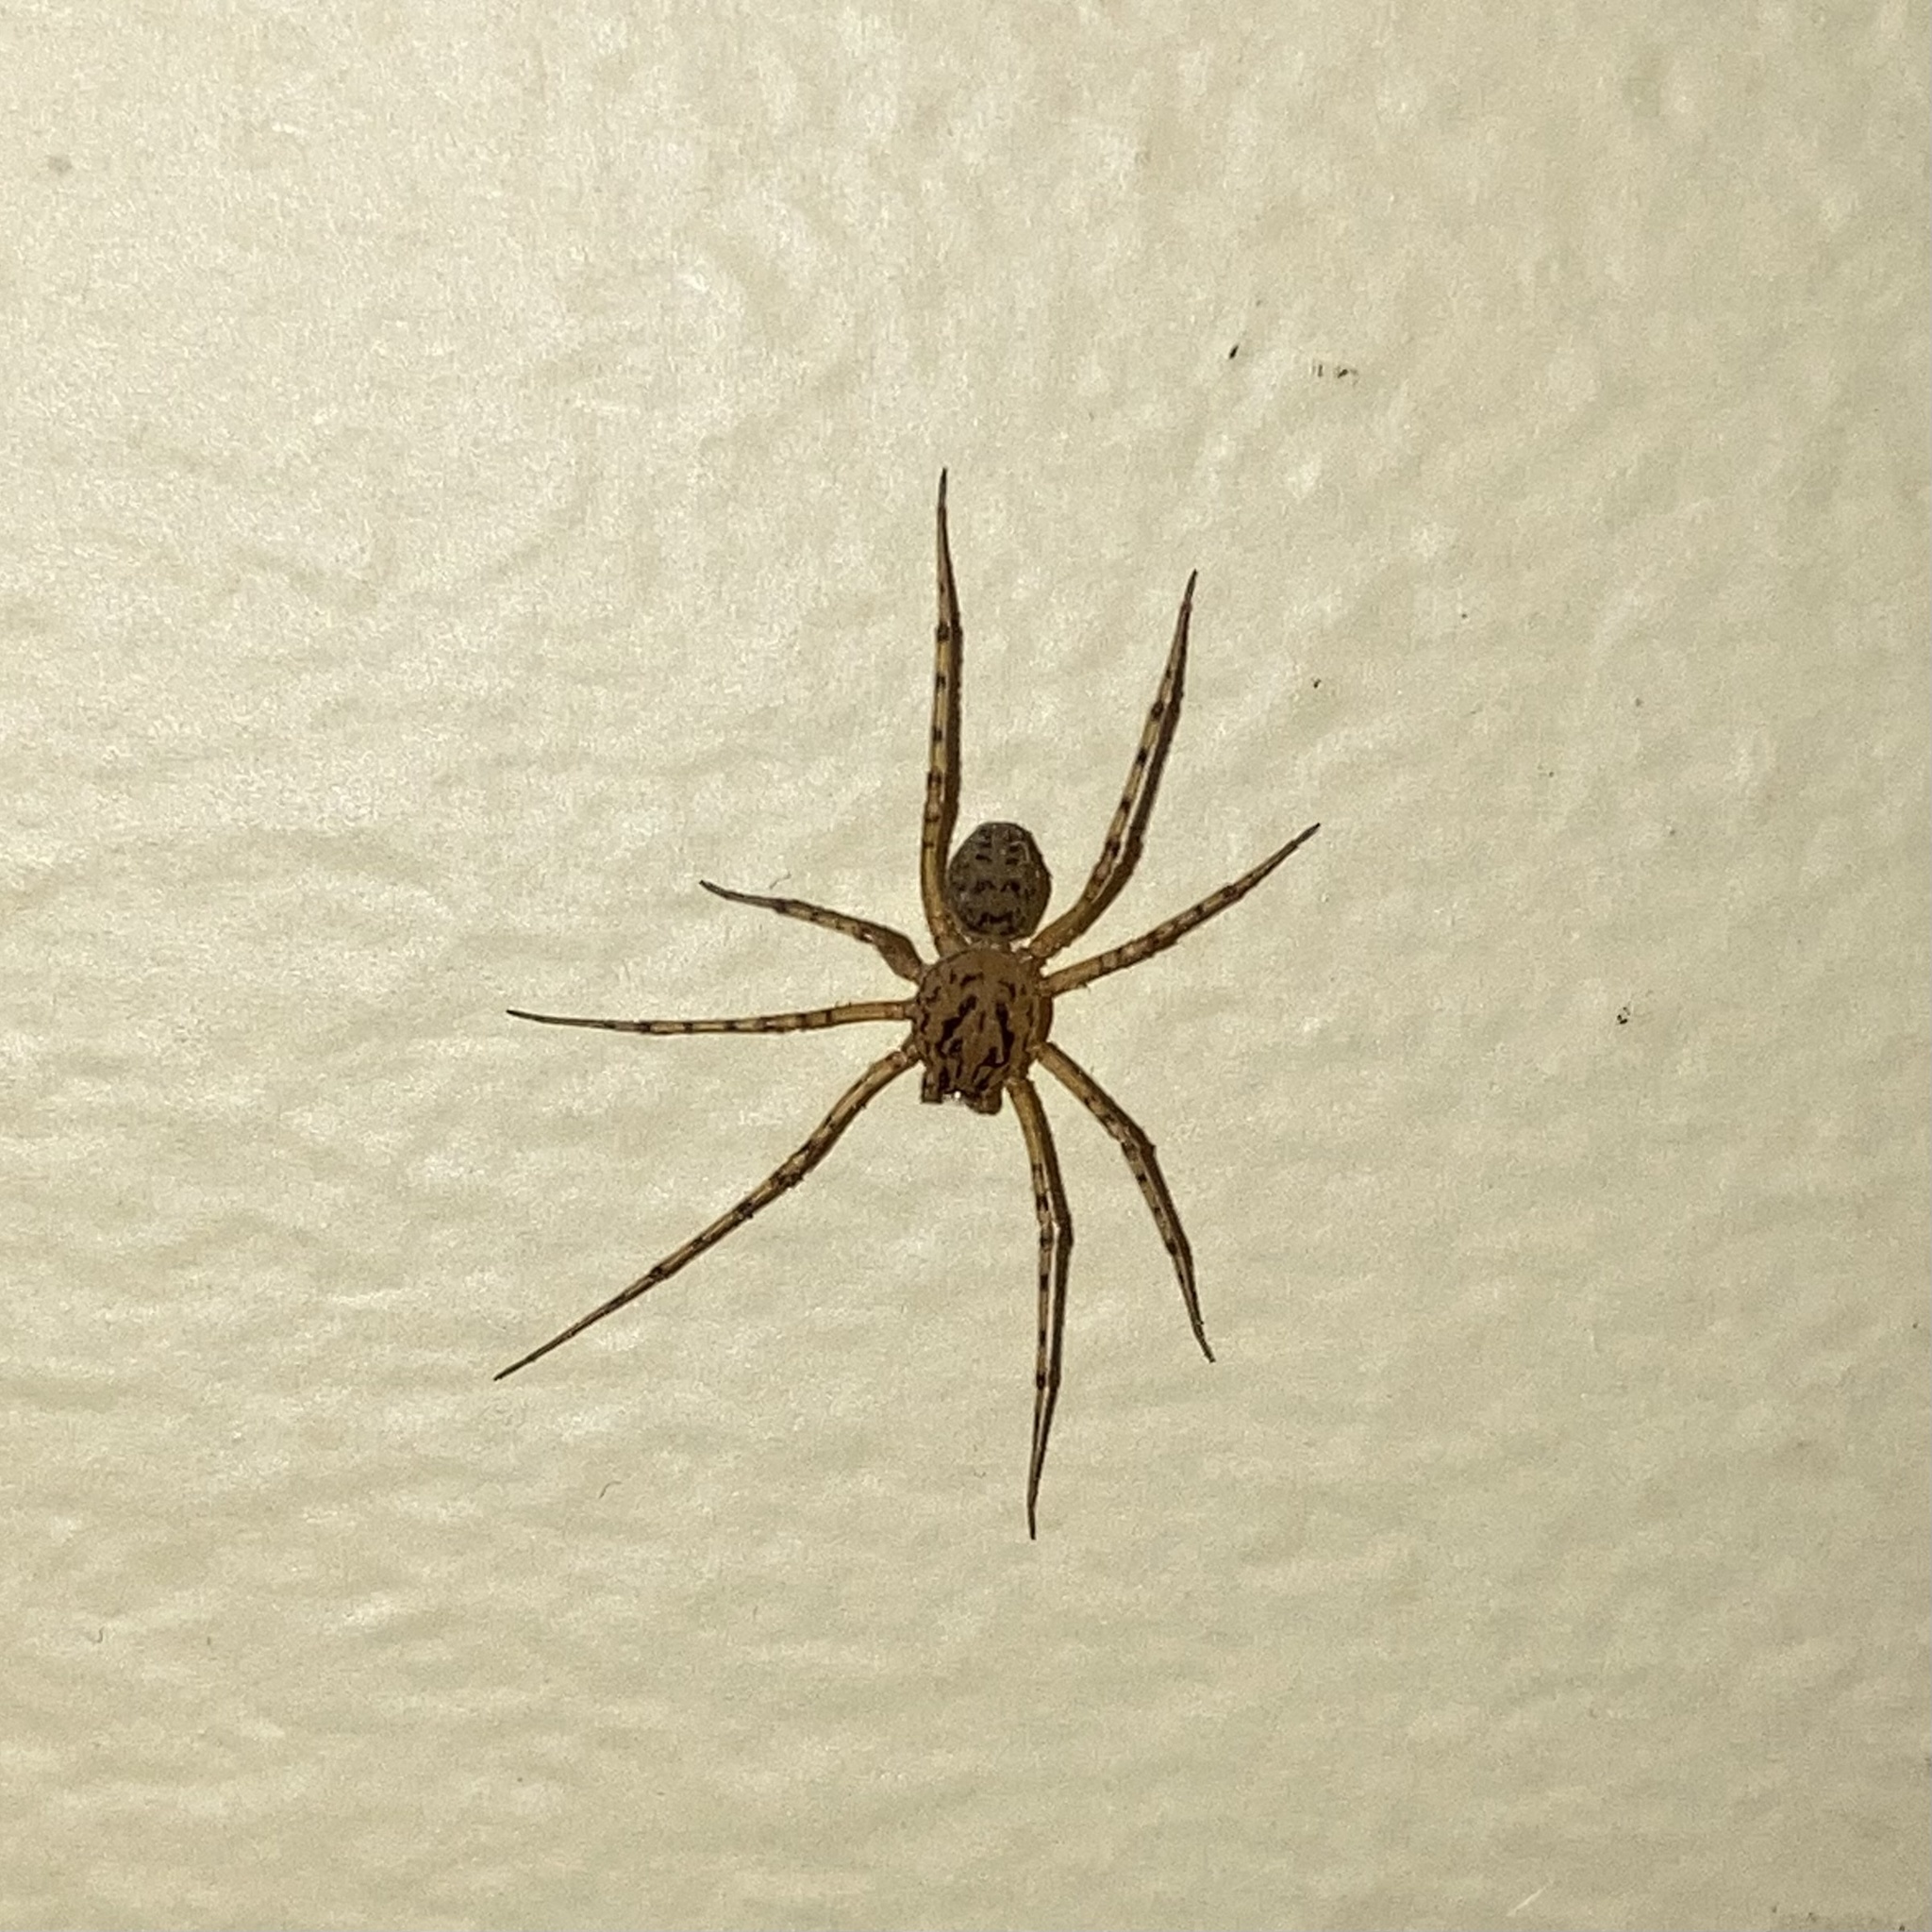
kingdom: Animalia
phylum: Arthropoda
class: Arachnida
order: Araneae
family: Scytodidae
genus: Scytodes
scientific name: Scytodes thoracica
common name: Spitting spider
